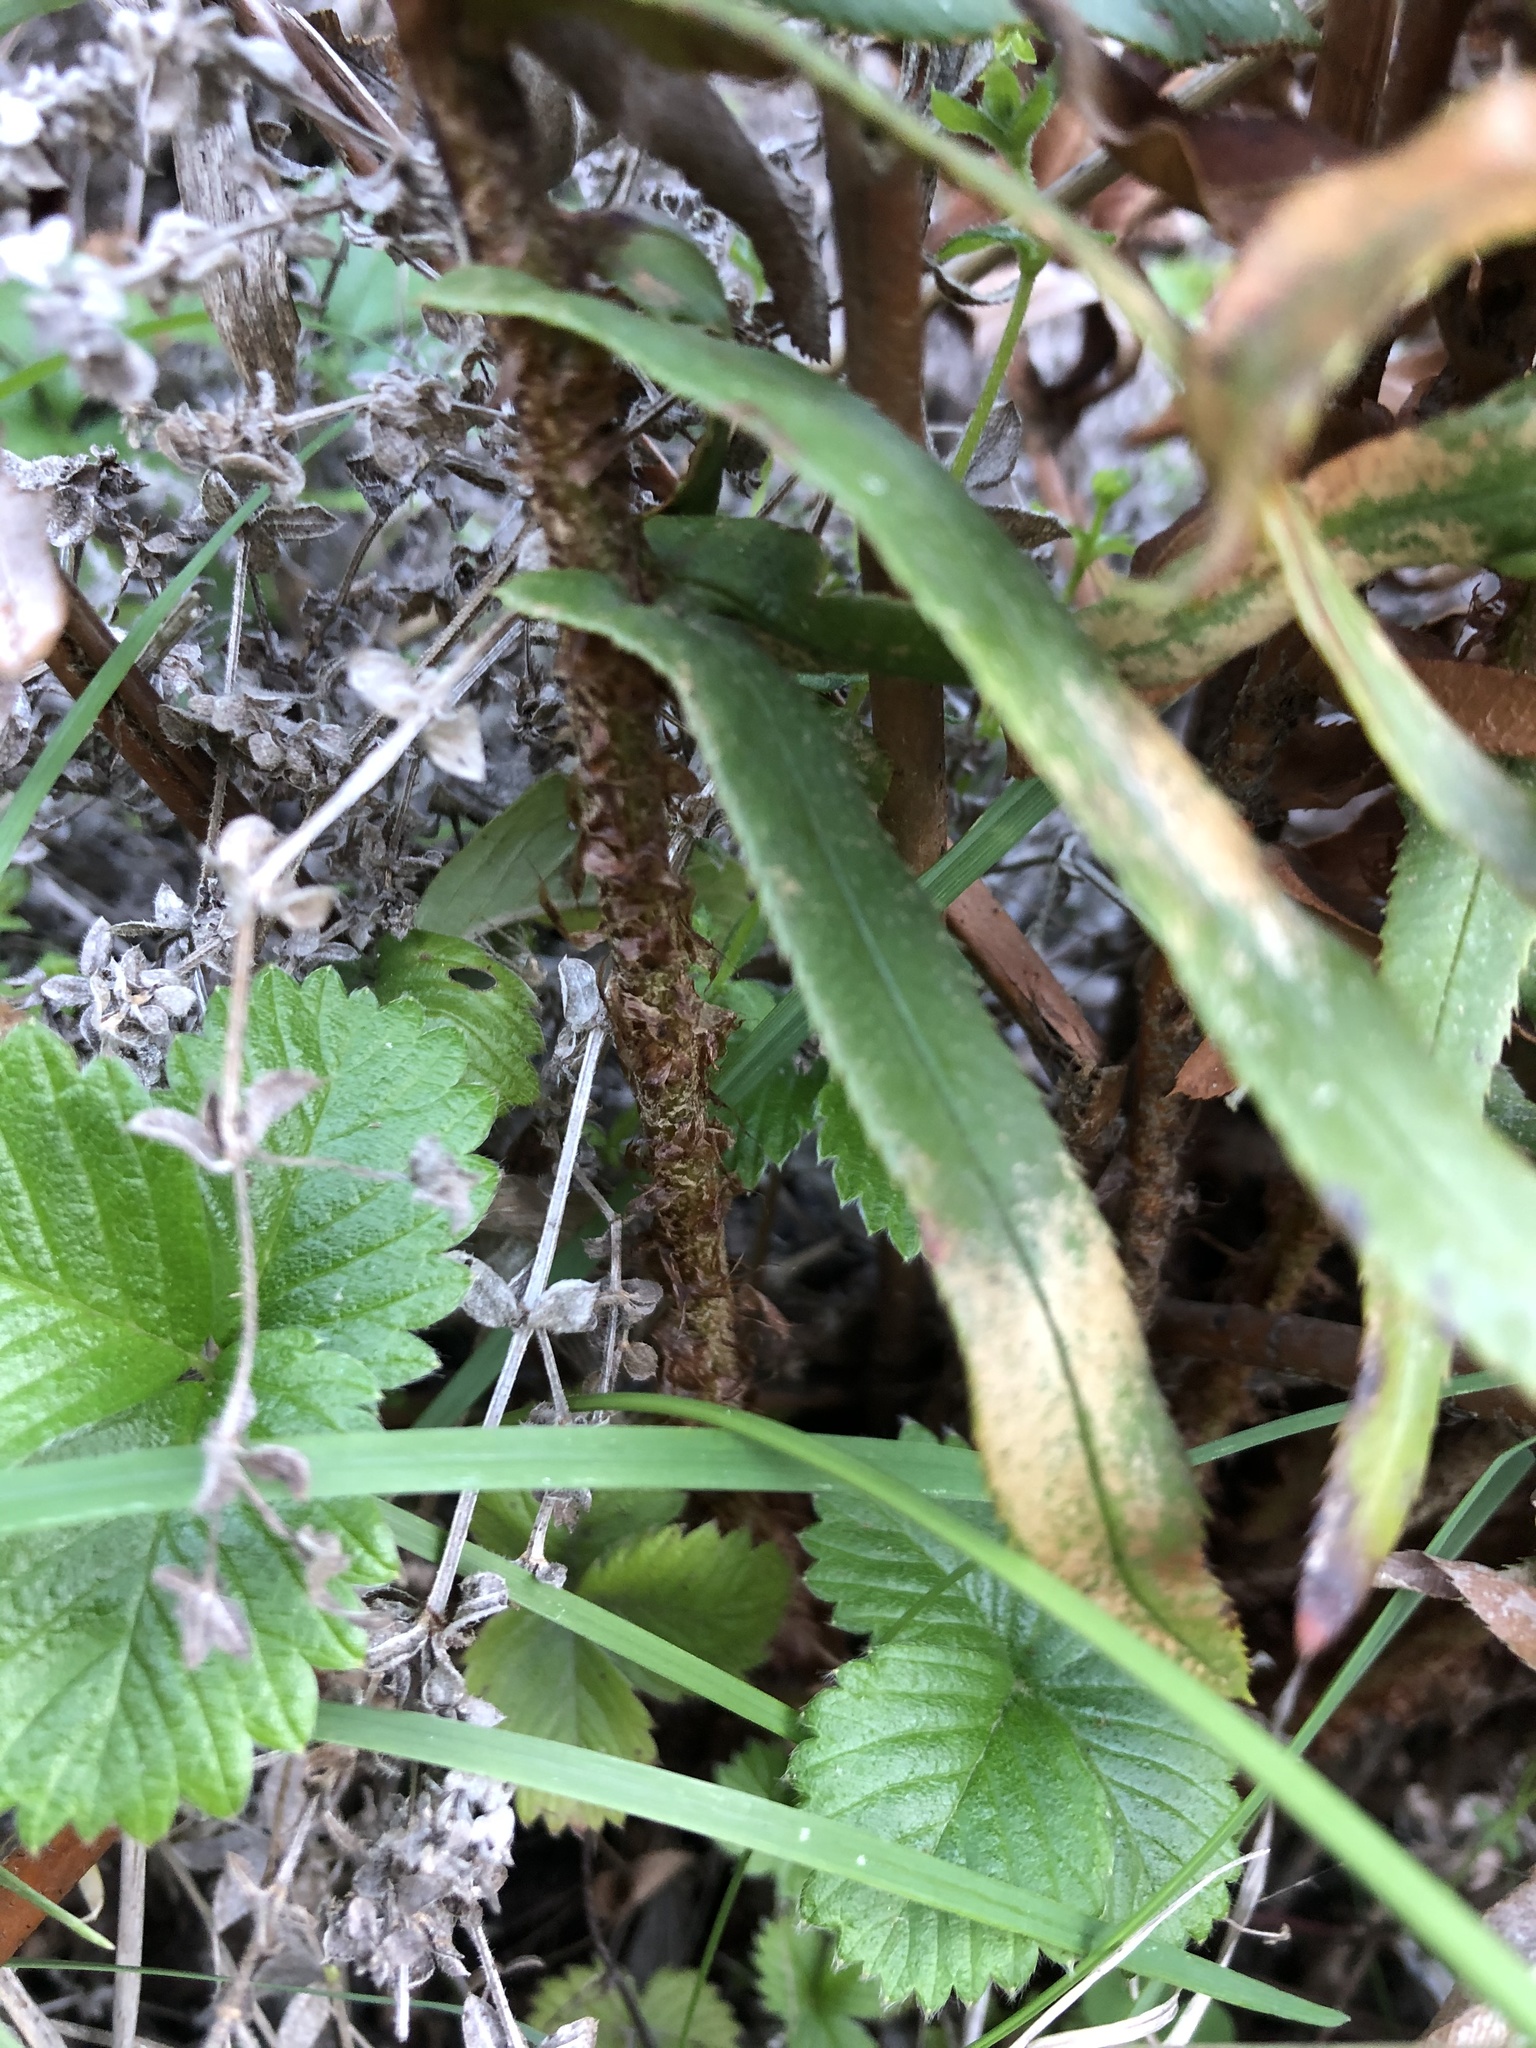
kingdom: Plantae
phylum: Tracheophyta
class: Polypodiopsida
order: Polypodiales
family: Dryopteridaceae
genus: Polystichum
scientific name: Polystichum munitum
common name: Western sword-fern
